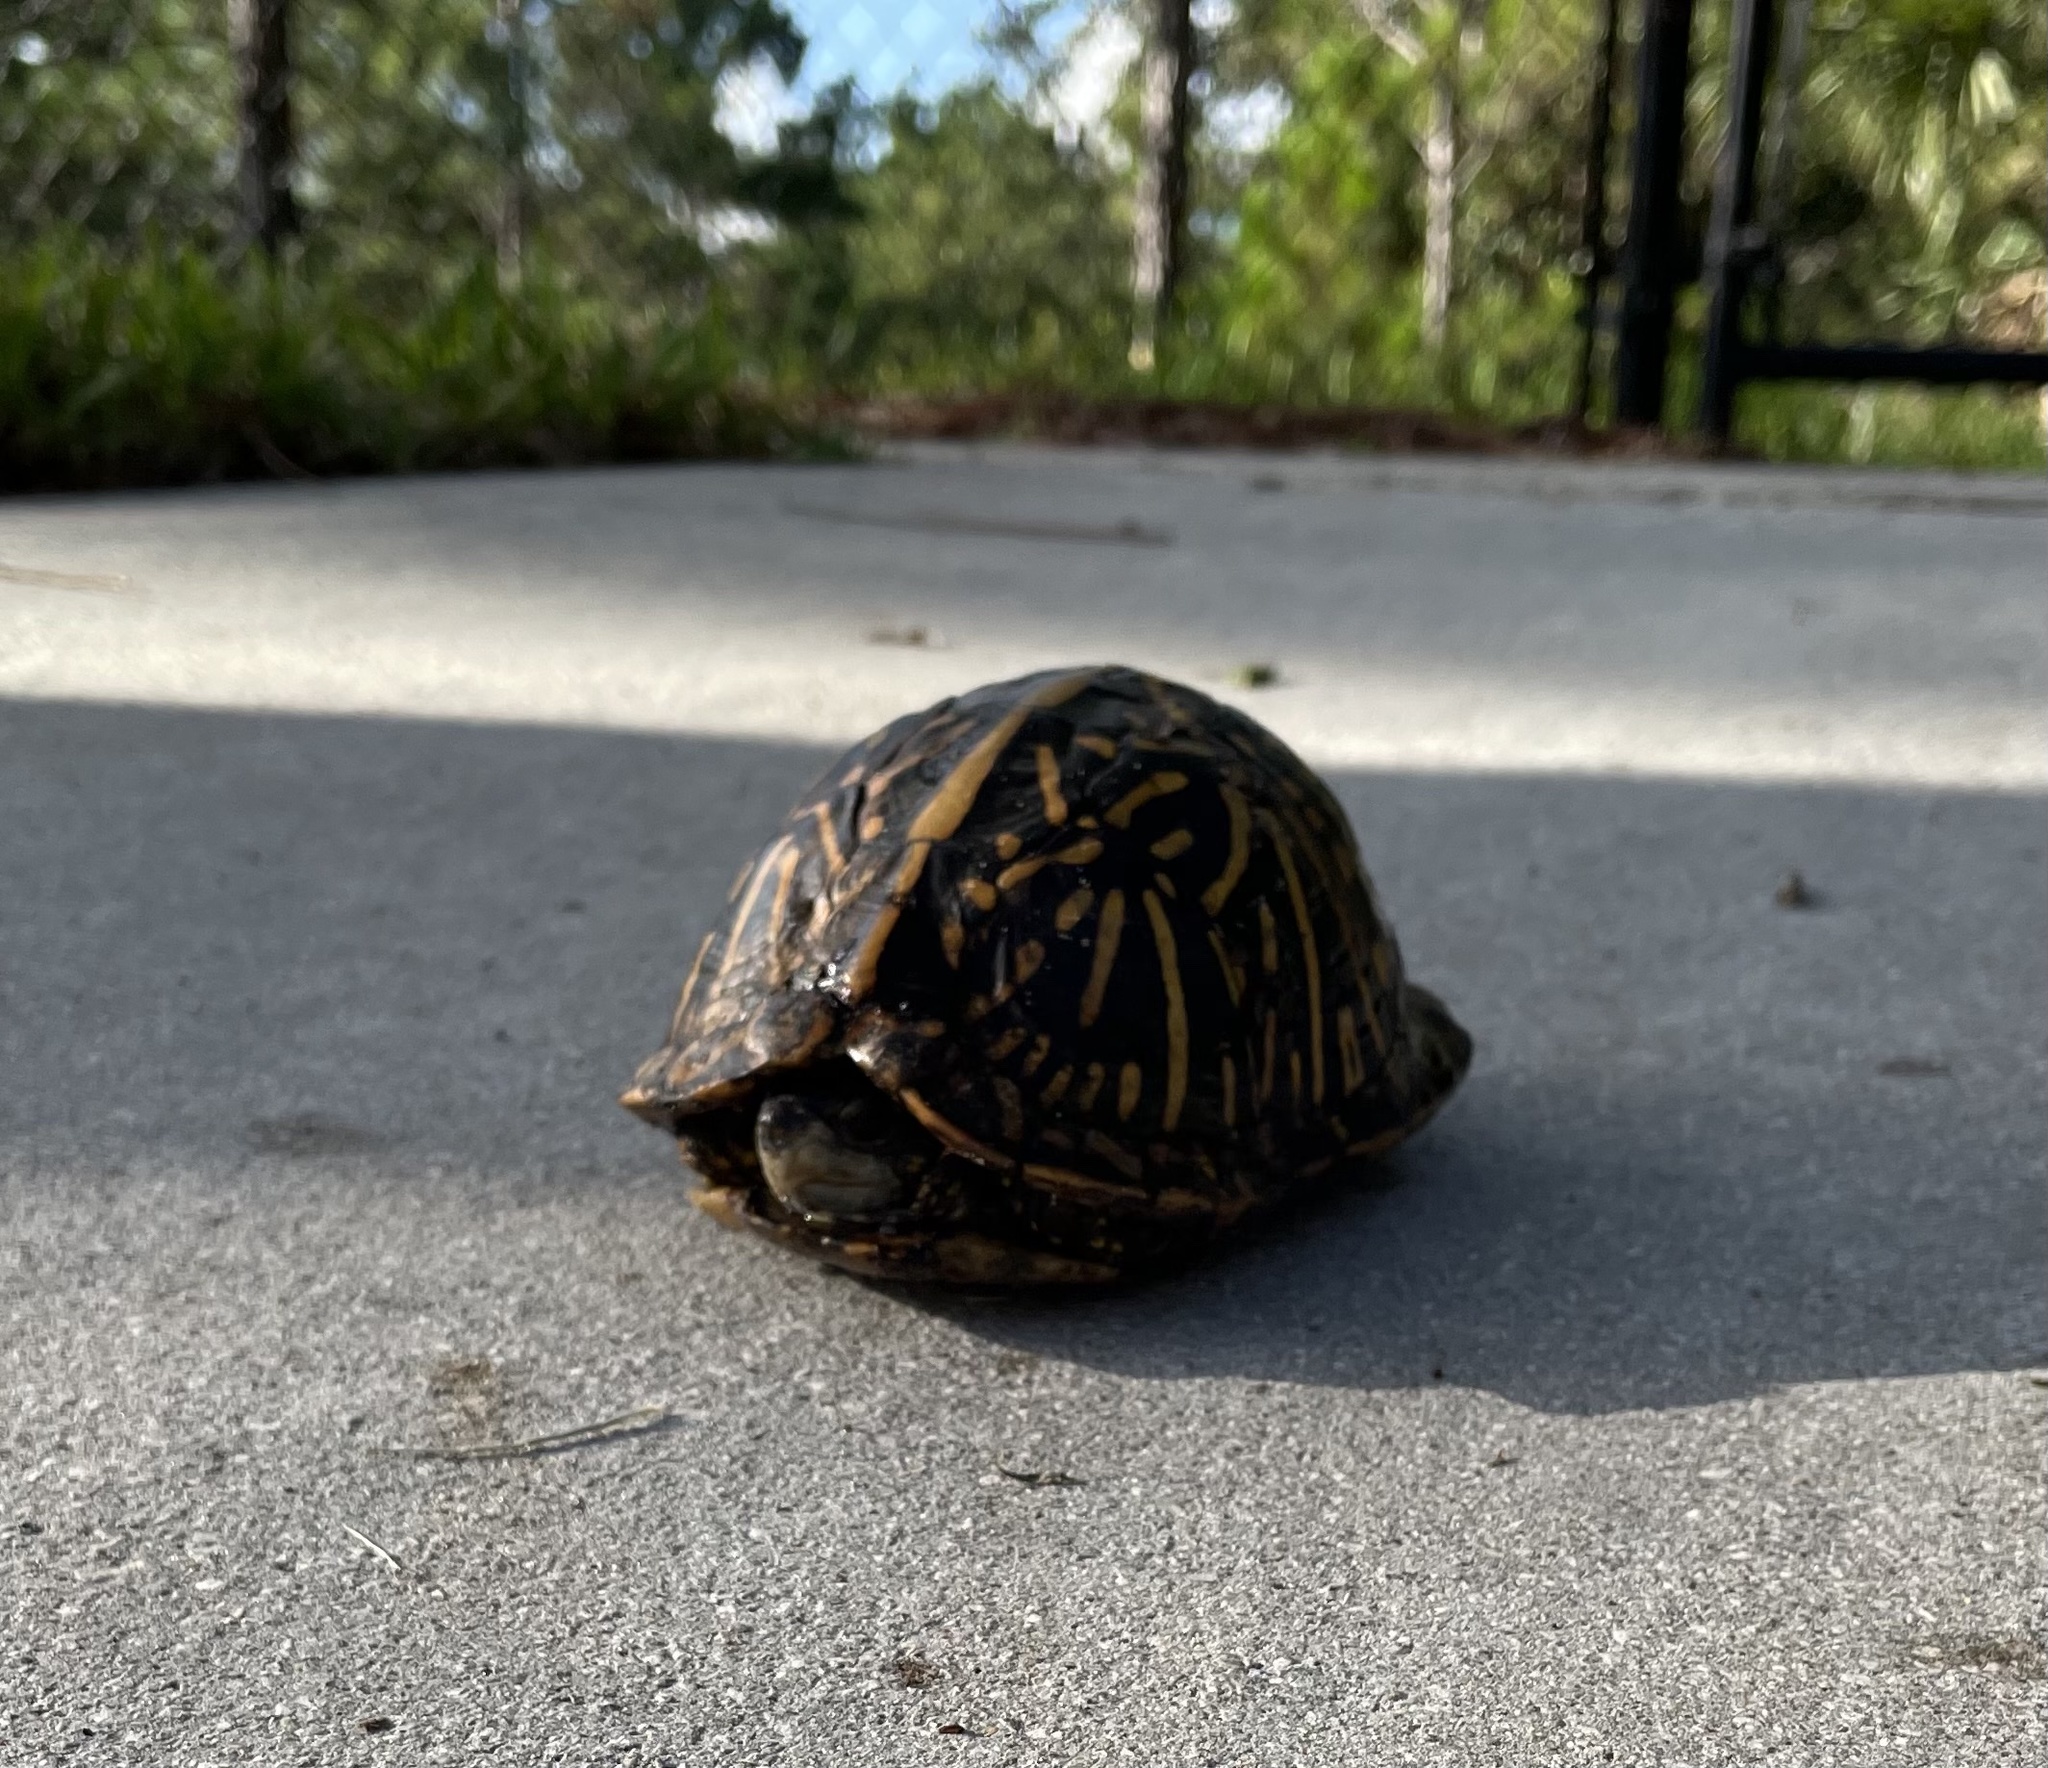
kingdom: Animalia
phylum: Chordata
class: Testudines
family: Emydidae
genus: Terrapene
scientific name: Terrapene carolina
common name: Common box turtle
